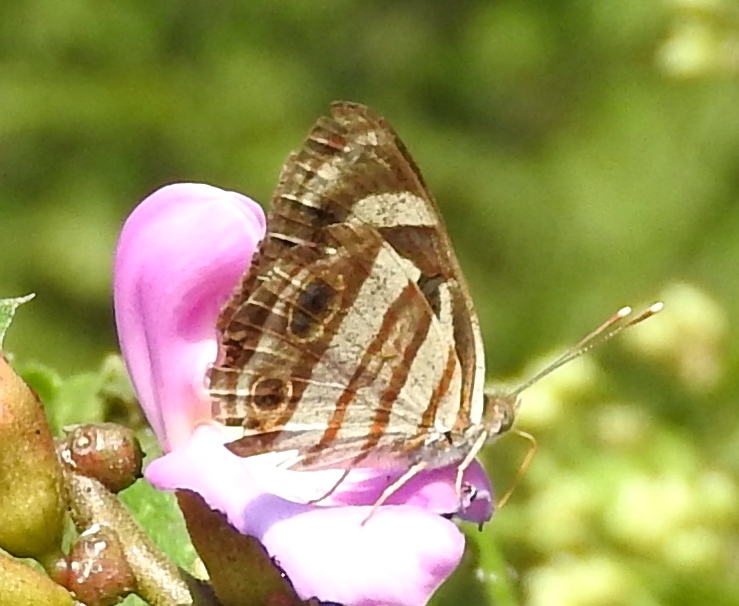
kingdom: Animalia
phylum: Arthropoda
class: Insecta
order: Lepidoptera
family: Nymphalidae
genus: Dynamine
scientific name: Dynamine mylitta
